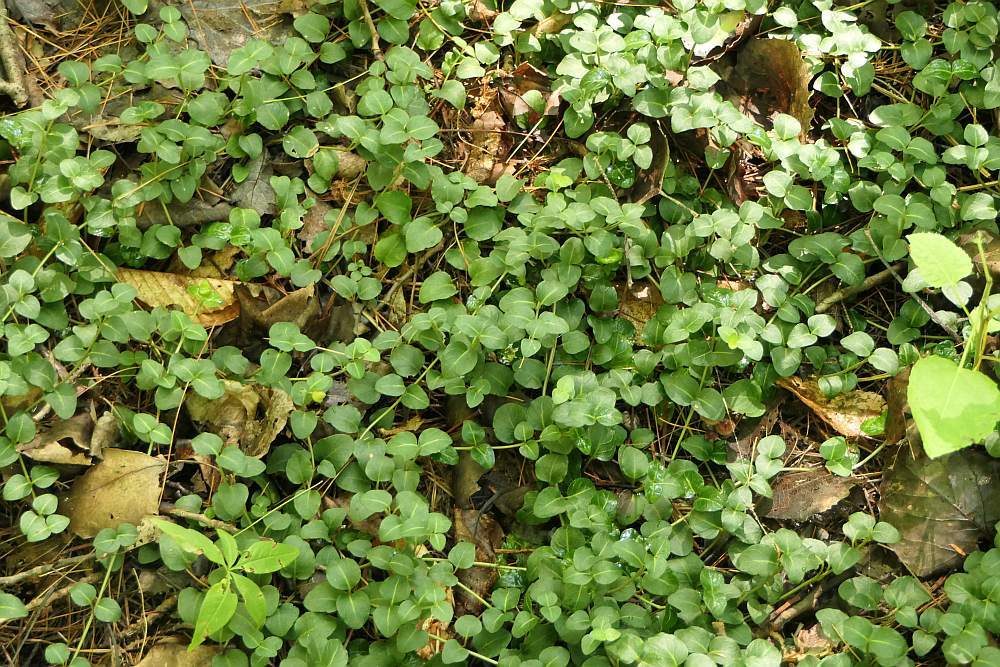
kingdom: Plantae
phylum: Tracheophyta
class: Magnoliopsida
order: Gentianales
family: Rubiaceae
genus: Mitchella
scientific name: Mitchella repens
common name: Partridge-berry
